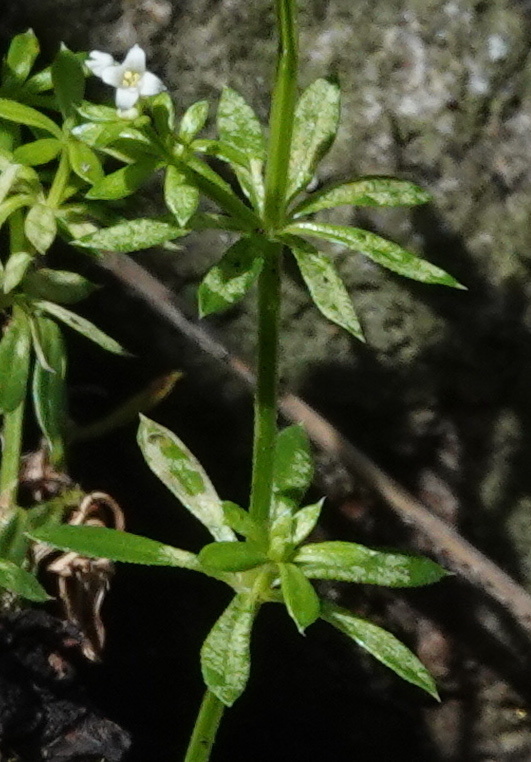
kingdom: Plantae
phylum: Tracheophyta
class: Magnoliopsida
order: Gentianales
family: Rubiaceae
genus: Galium
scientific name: Galium mexicanum
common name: Mexican bedstraw
